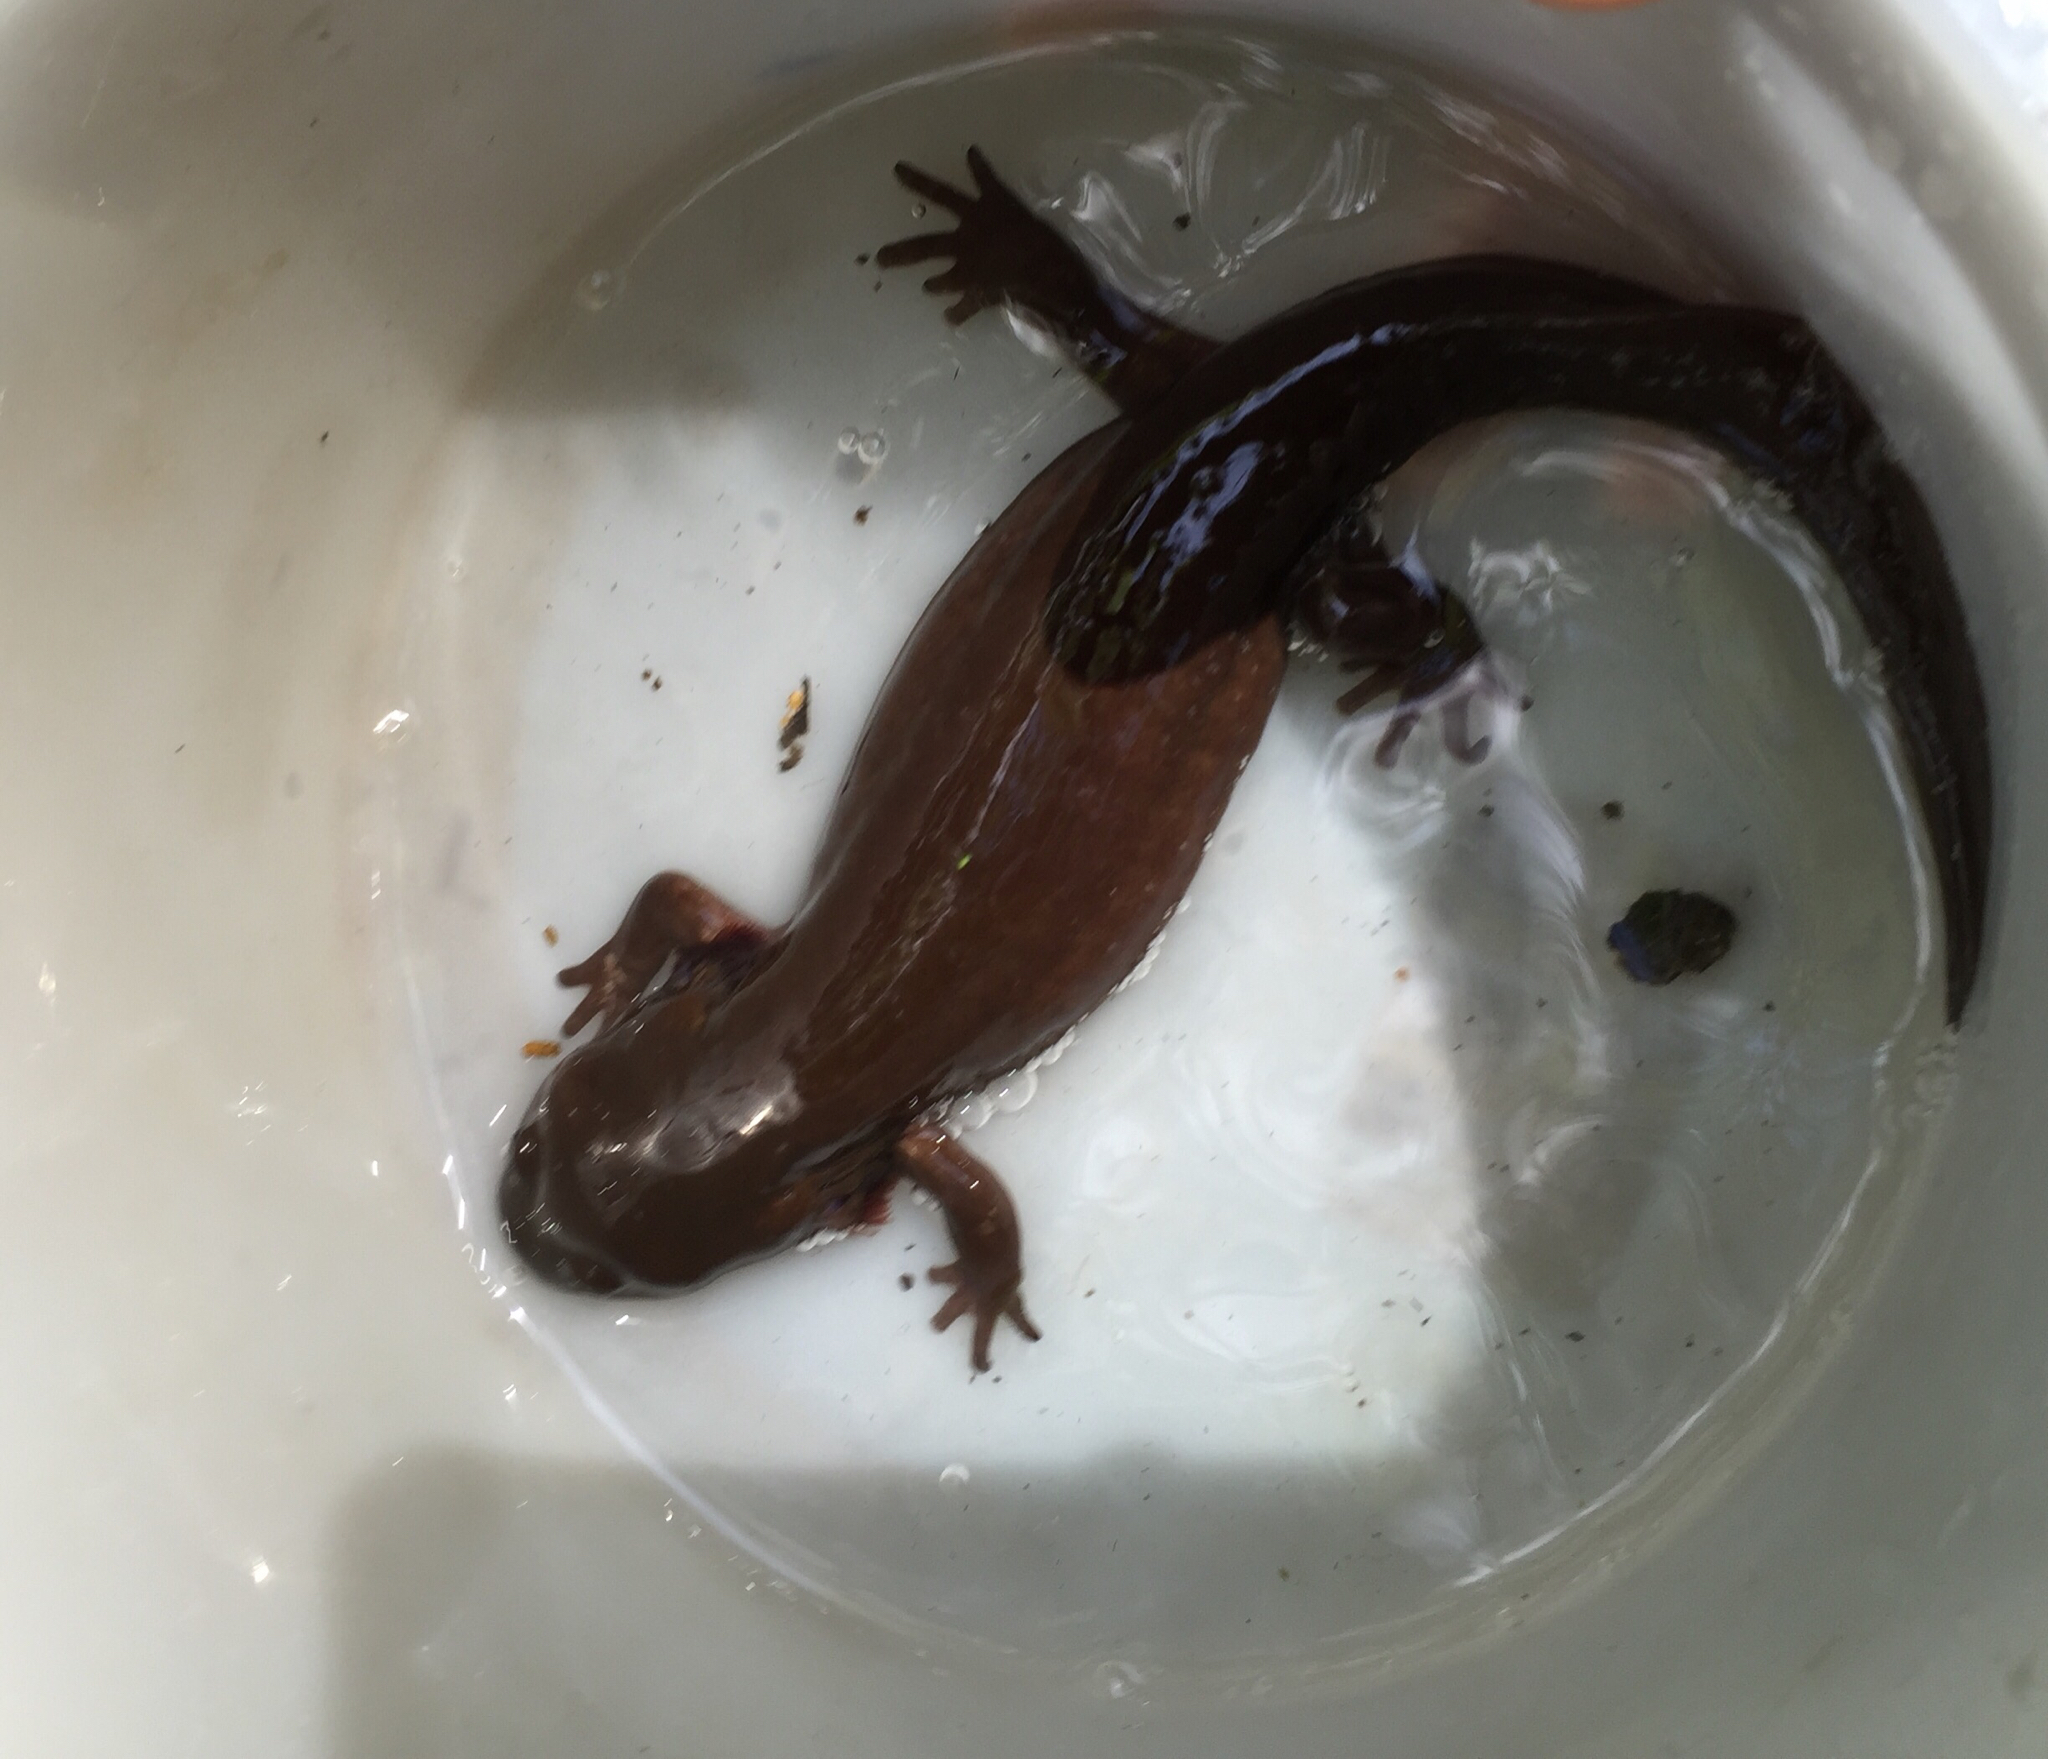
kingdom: Animalia
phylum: Chordata
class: Amphibia
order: Caudata
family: Ambystomatidae
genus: Dicamptodon
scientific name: Dicamptodon ensatus
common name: California giant salamander
